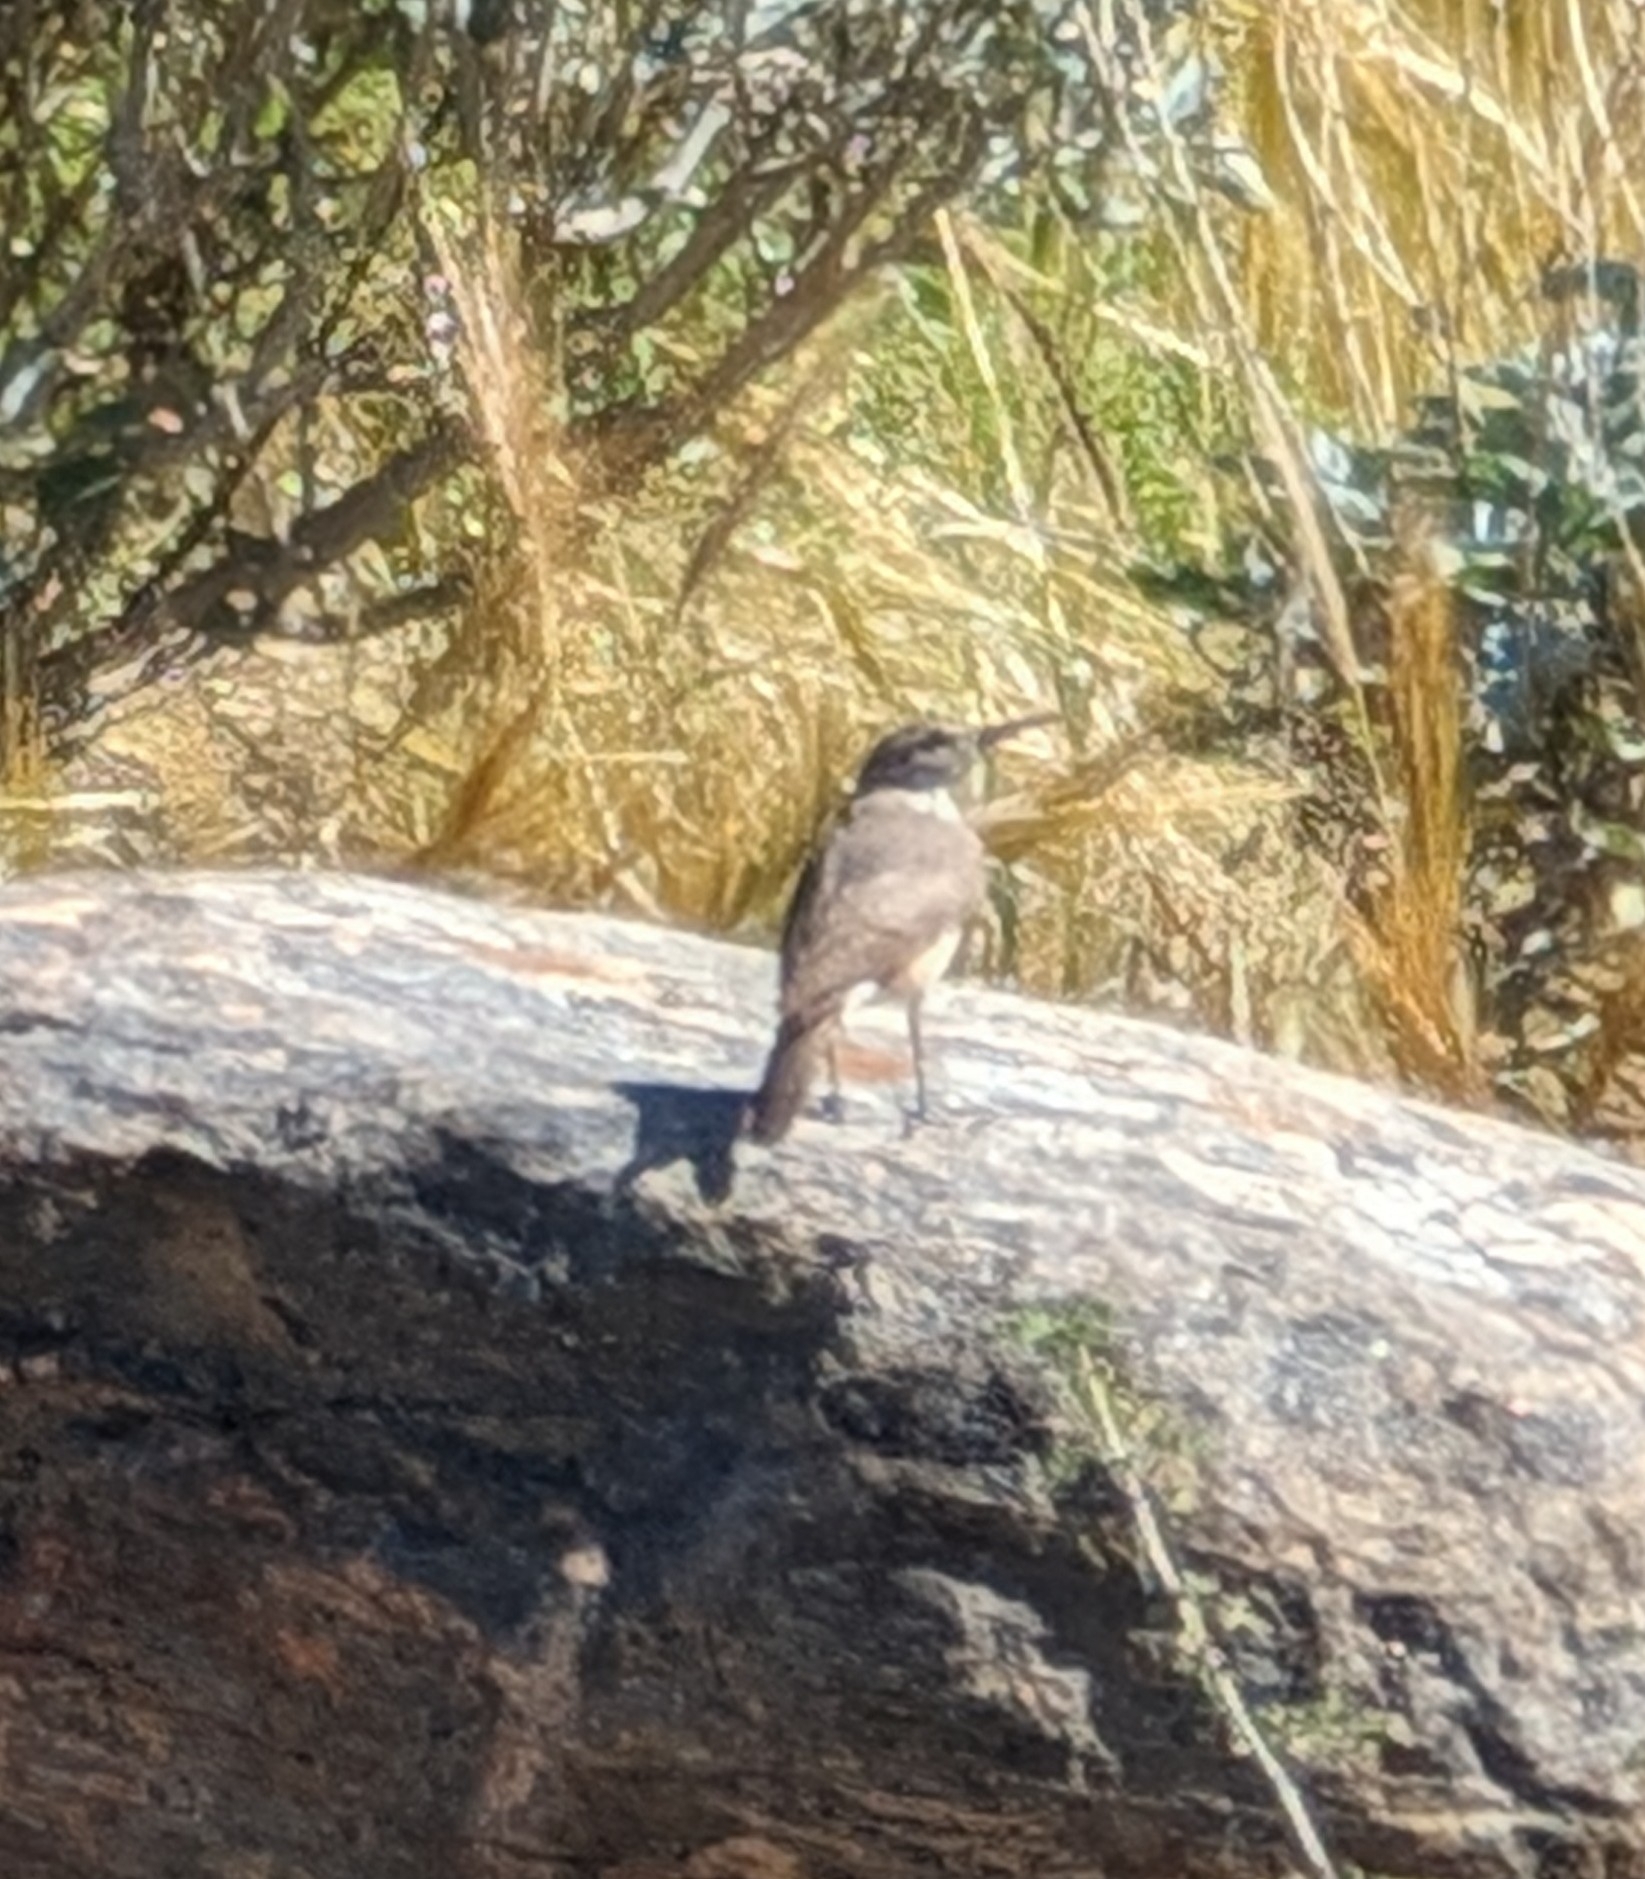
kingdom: Animalia
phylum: Chordata
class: Aves
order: Passeriformes
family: Troglodytidae
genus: Salpinctes
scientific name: Salpinctes obsoletus
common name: Rock wren
